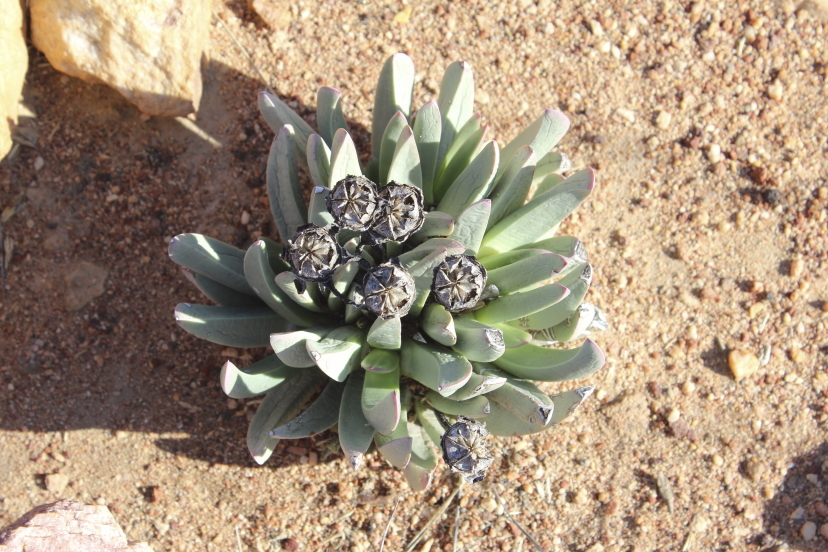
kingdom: Plantae
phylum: Tracheophyta
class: Magnoliopsida
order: Caryophyllales
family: Aizoaceae
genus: Machairophyllum
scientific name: Machairophyllum albidum
